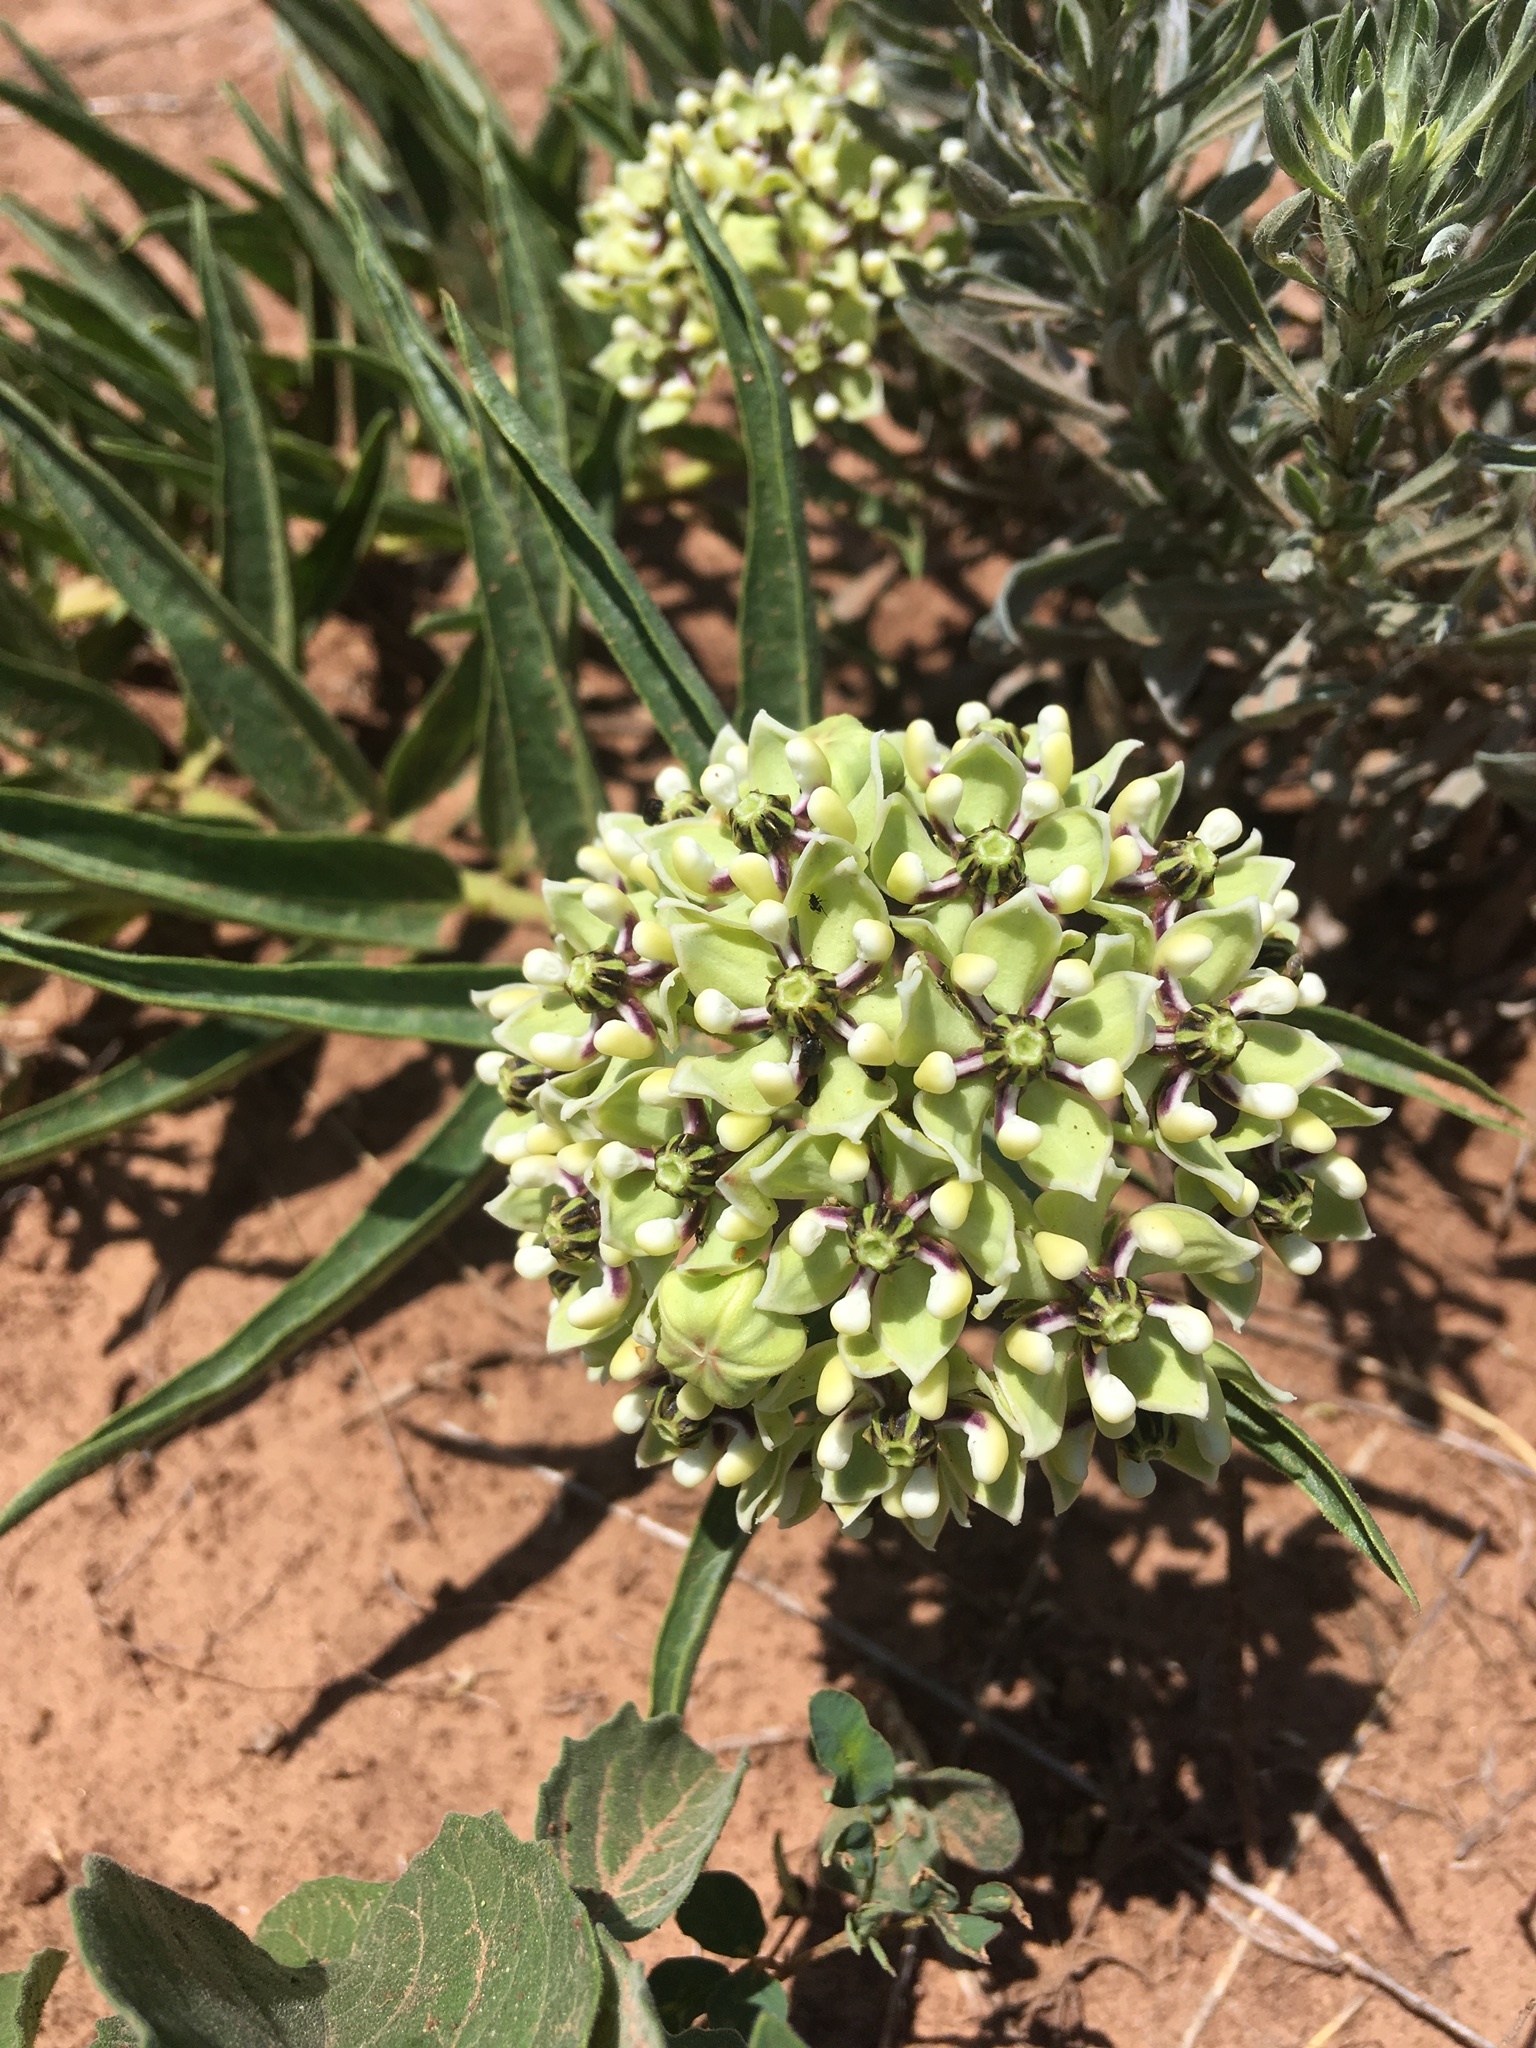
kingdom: Plantae
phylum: Tracheophyta
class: Magnoliopsida
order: Gentianales
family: Apocynaceae
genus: Asclepias
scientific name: Asclepias asperula
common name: Antelope horns
